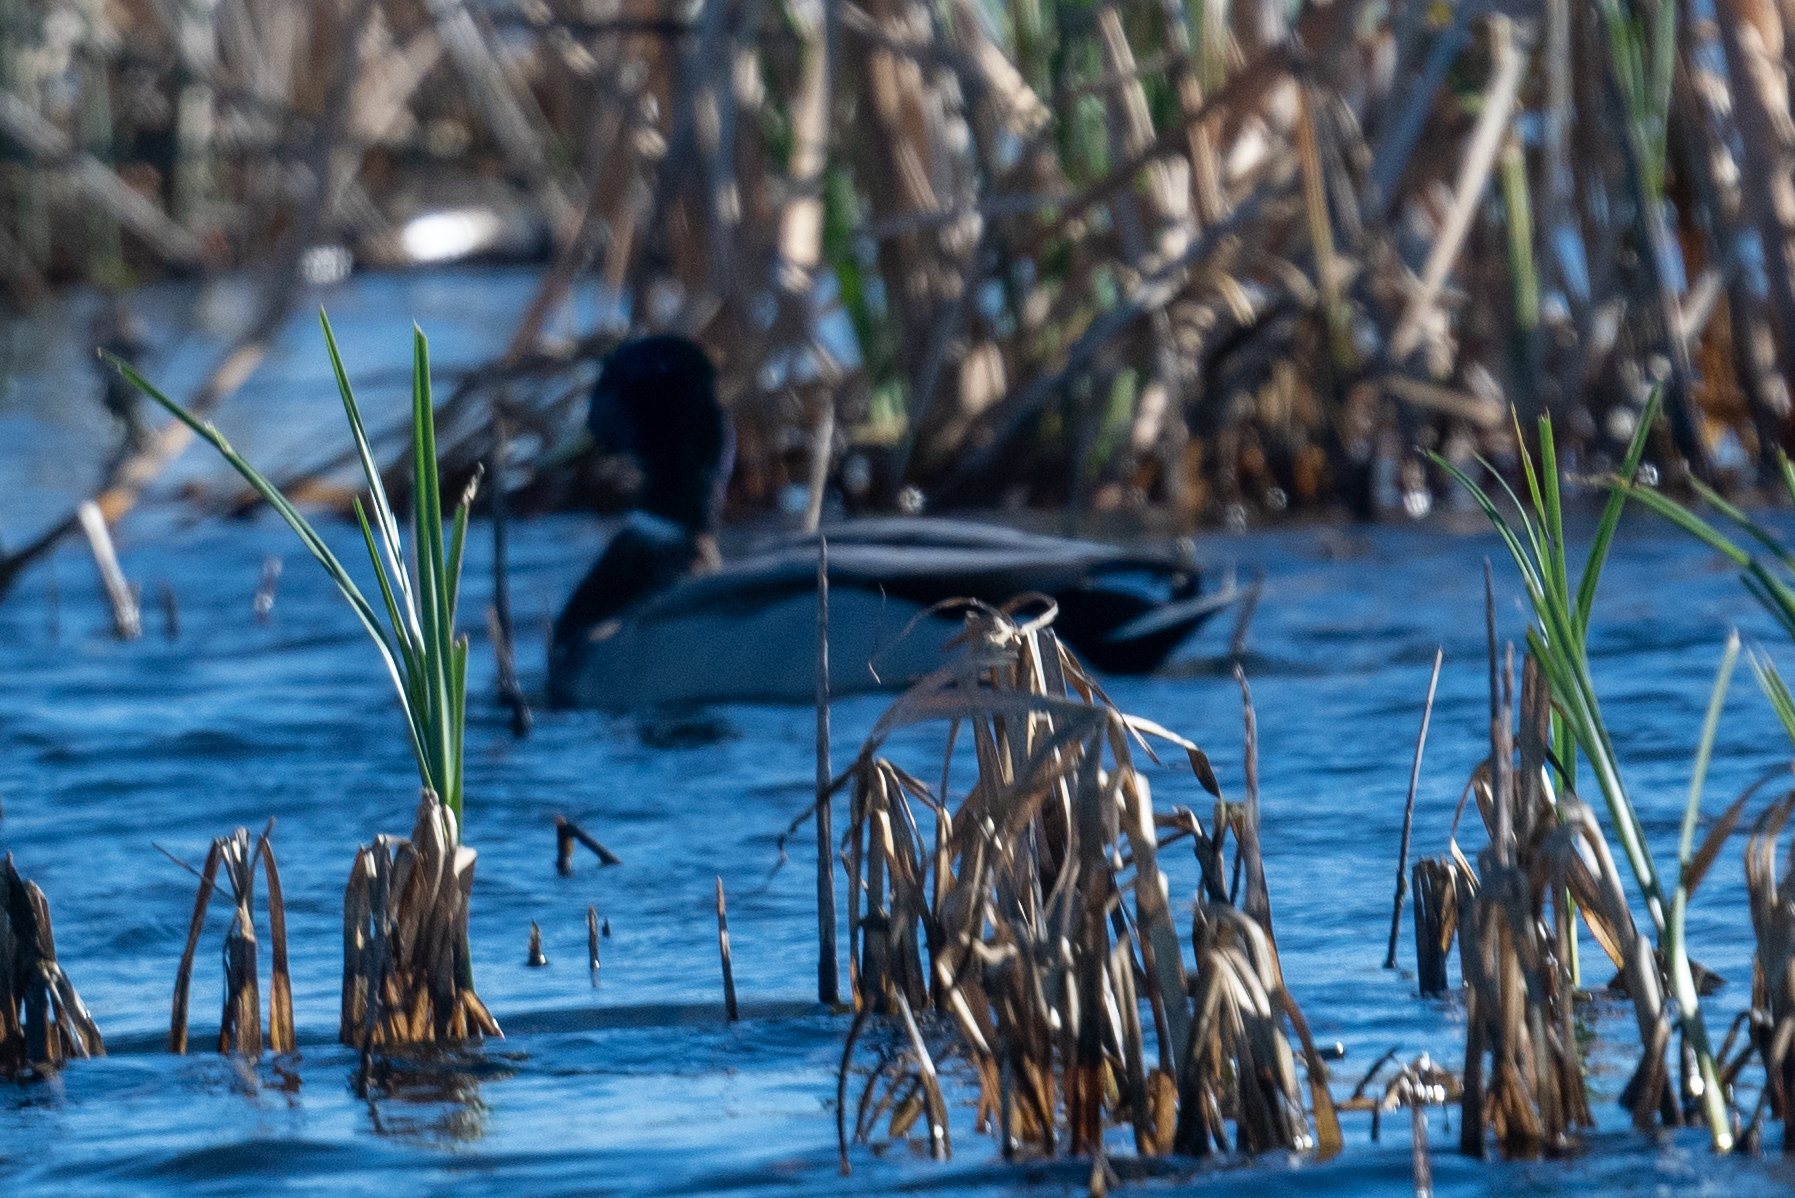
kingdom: Animalia
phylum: Chordata
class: Aves
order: Anseriformes
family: Anatidae
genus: Anas
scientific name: Anas platyrhynchos
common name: Mallard
